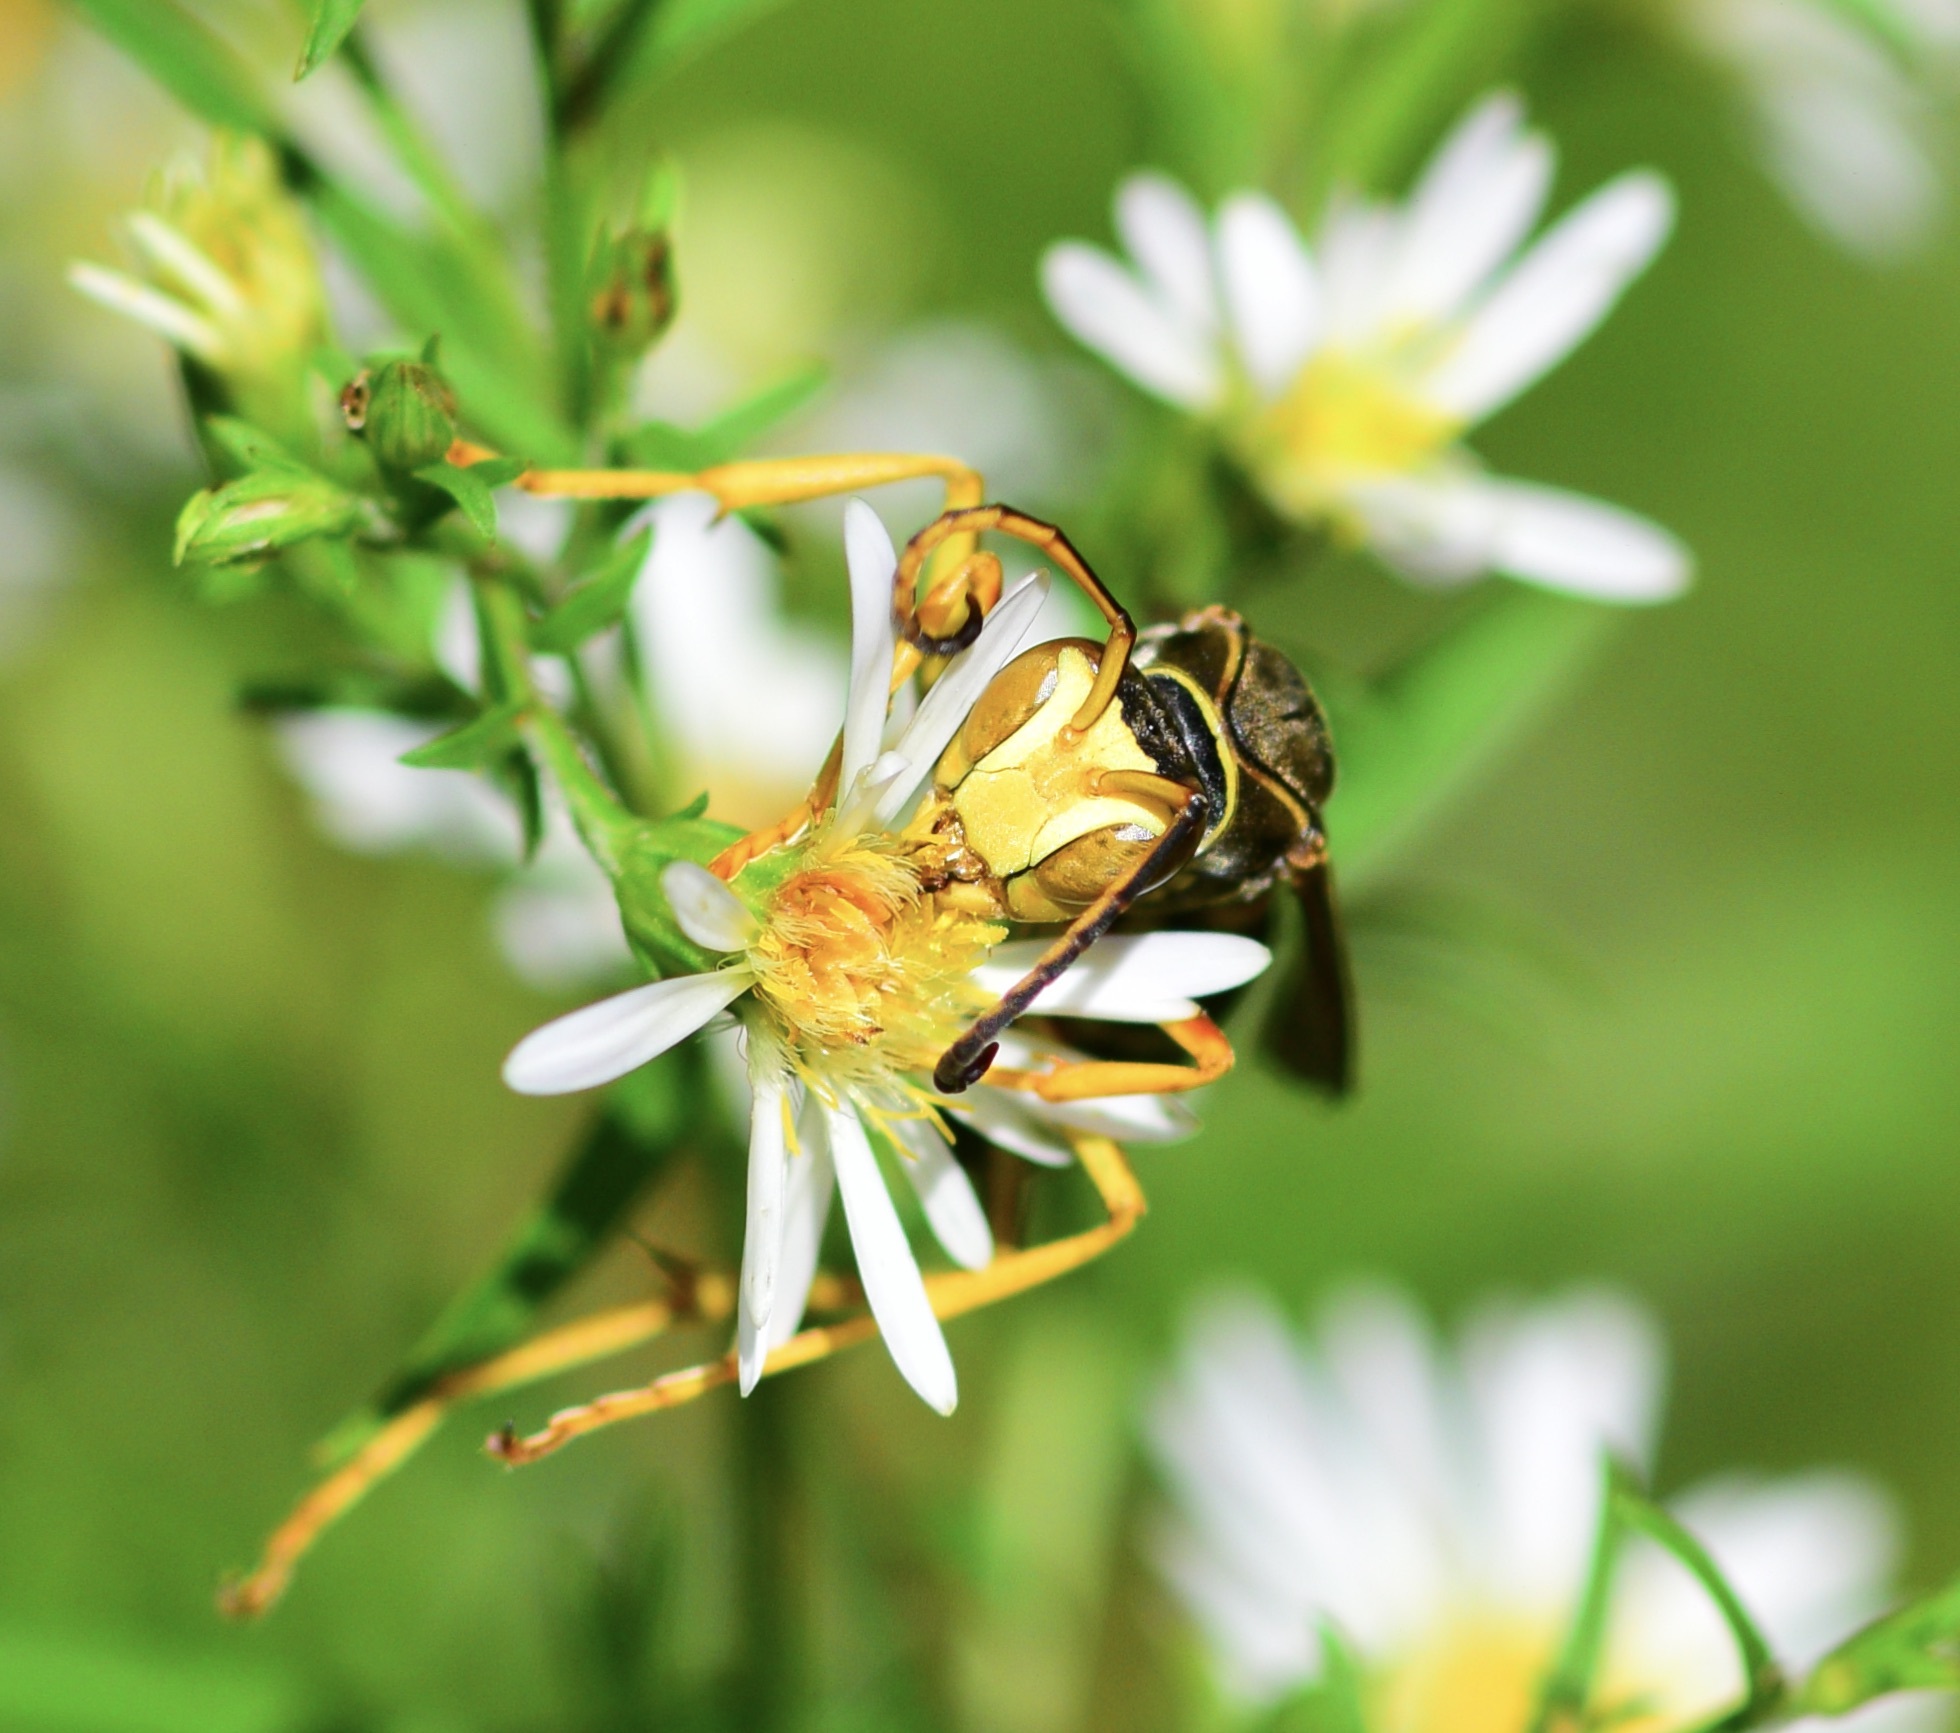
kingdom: Animalia
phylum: Arthropoda
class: Insecta
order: Hymenoptera
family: Eumenidae
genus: Polistes
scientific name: Polistes fuscatus
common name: Dark paper wasp
